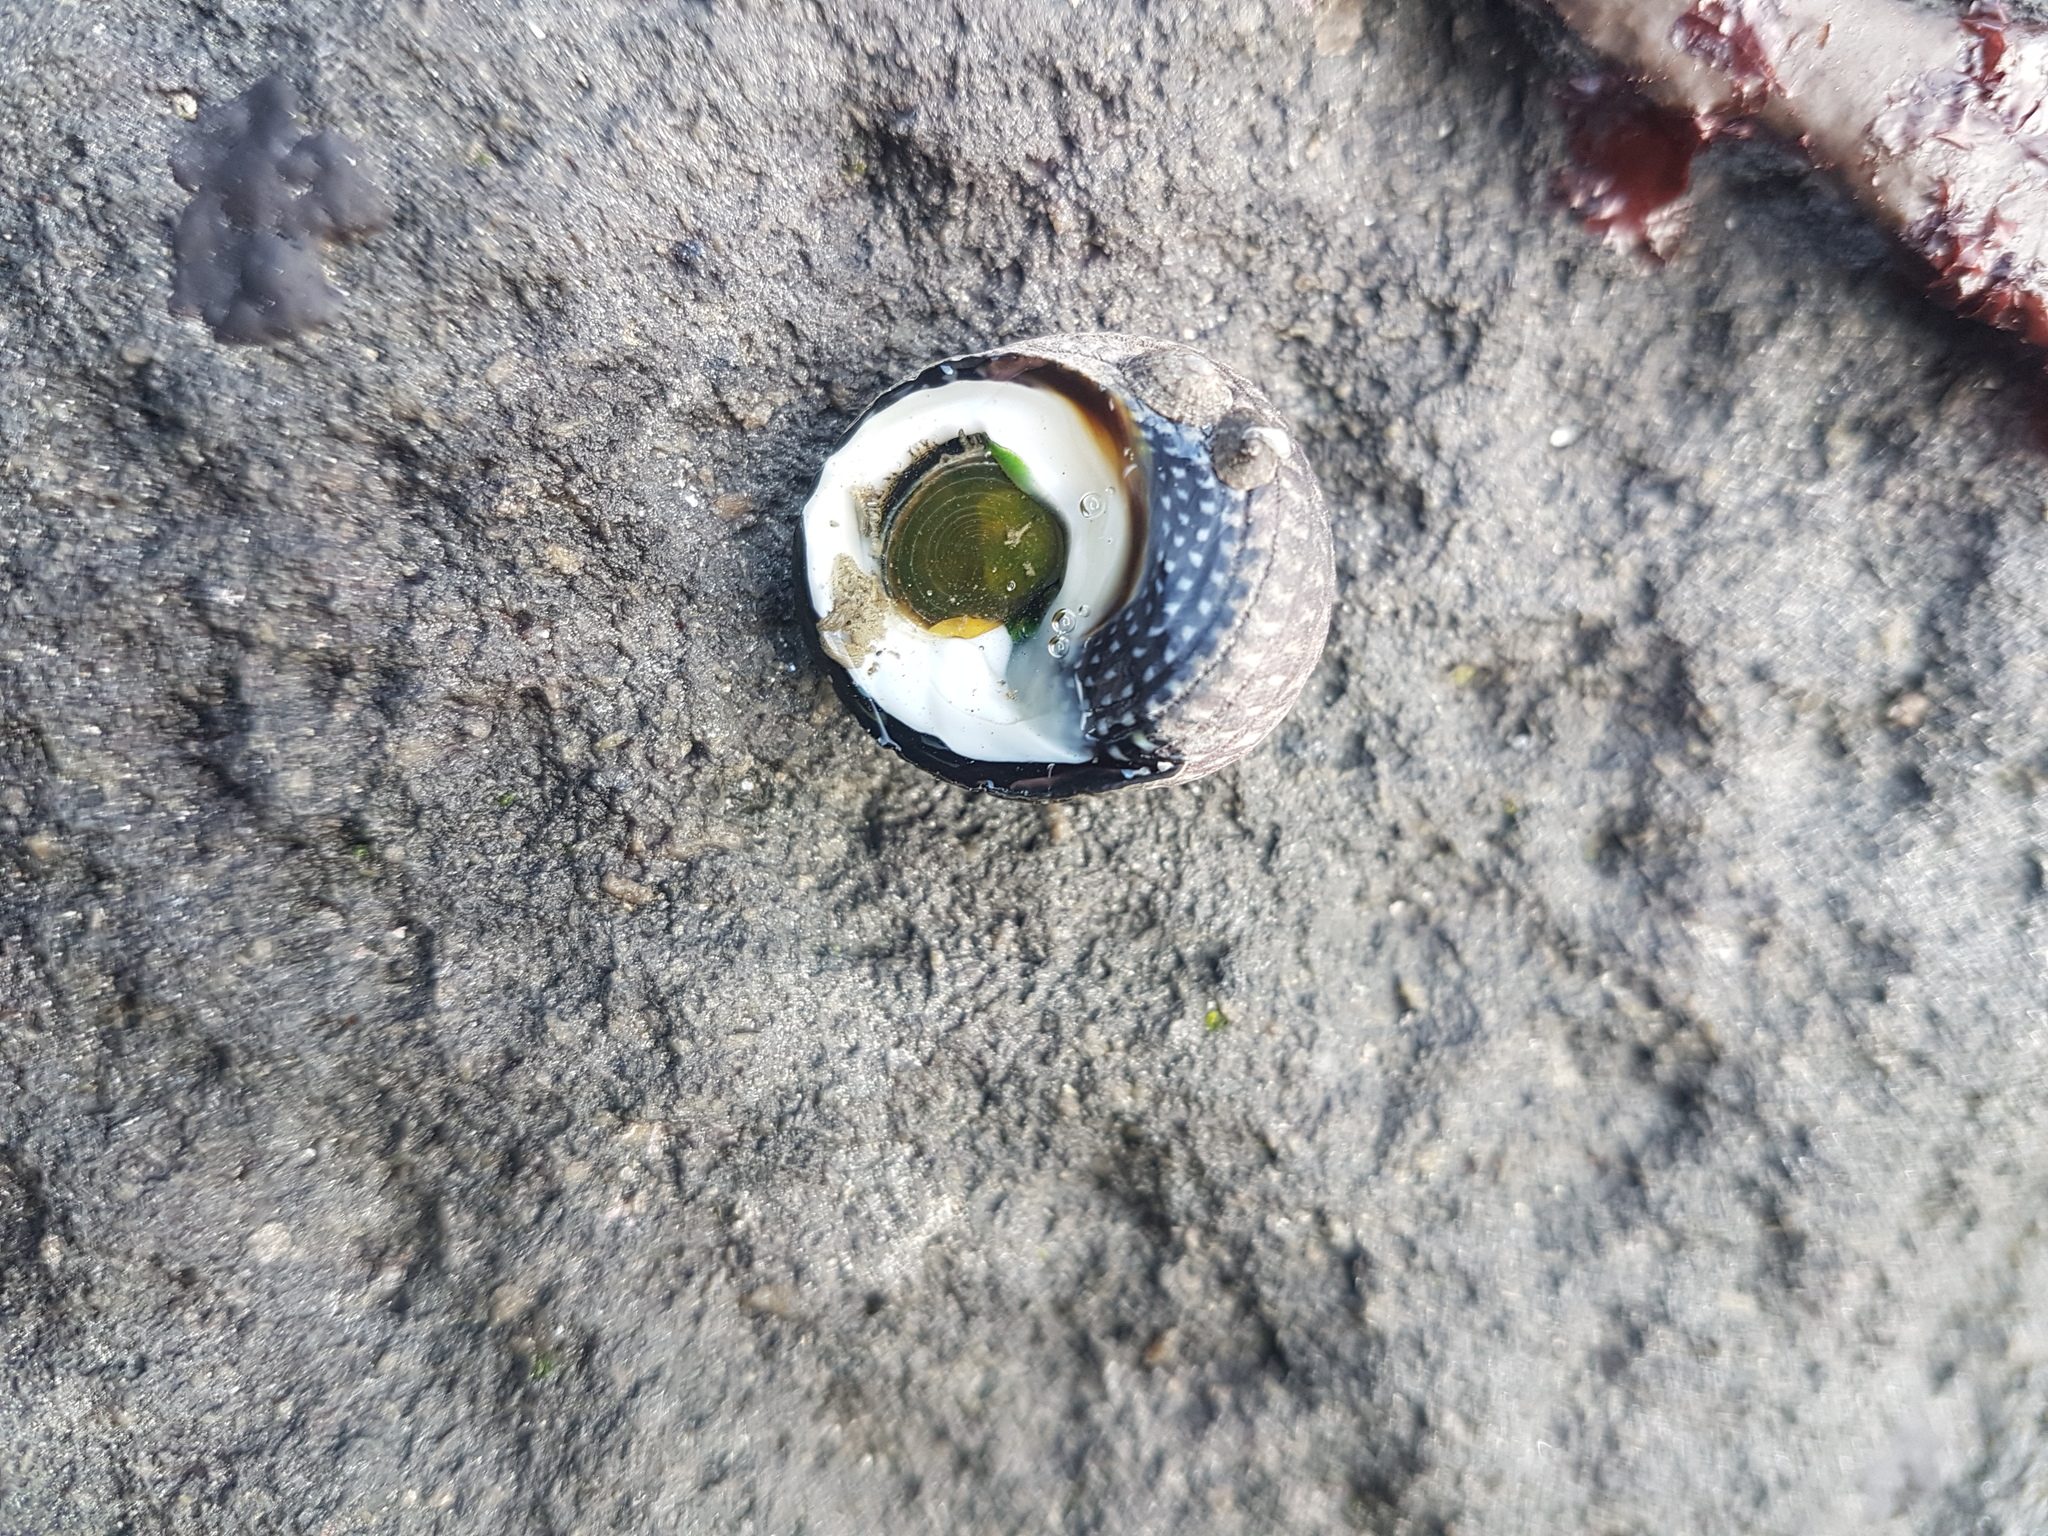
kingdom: Animalia
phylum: Mollusca
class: Gastropoda
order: Trochida
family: Trochidae
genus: Diloma
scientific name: Diloma aethiops
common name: Scorched monodont
